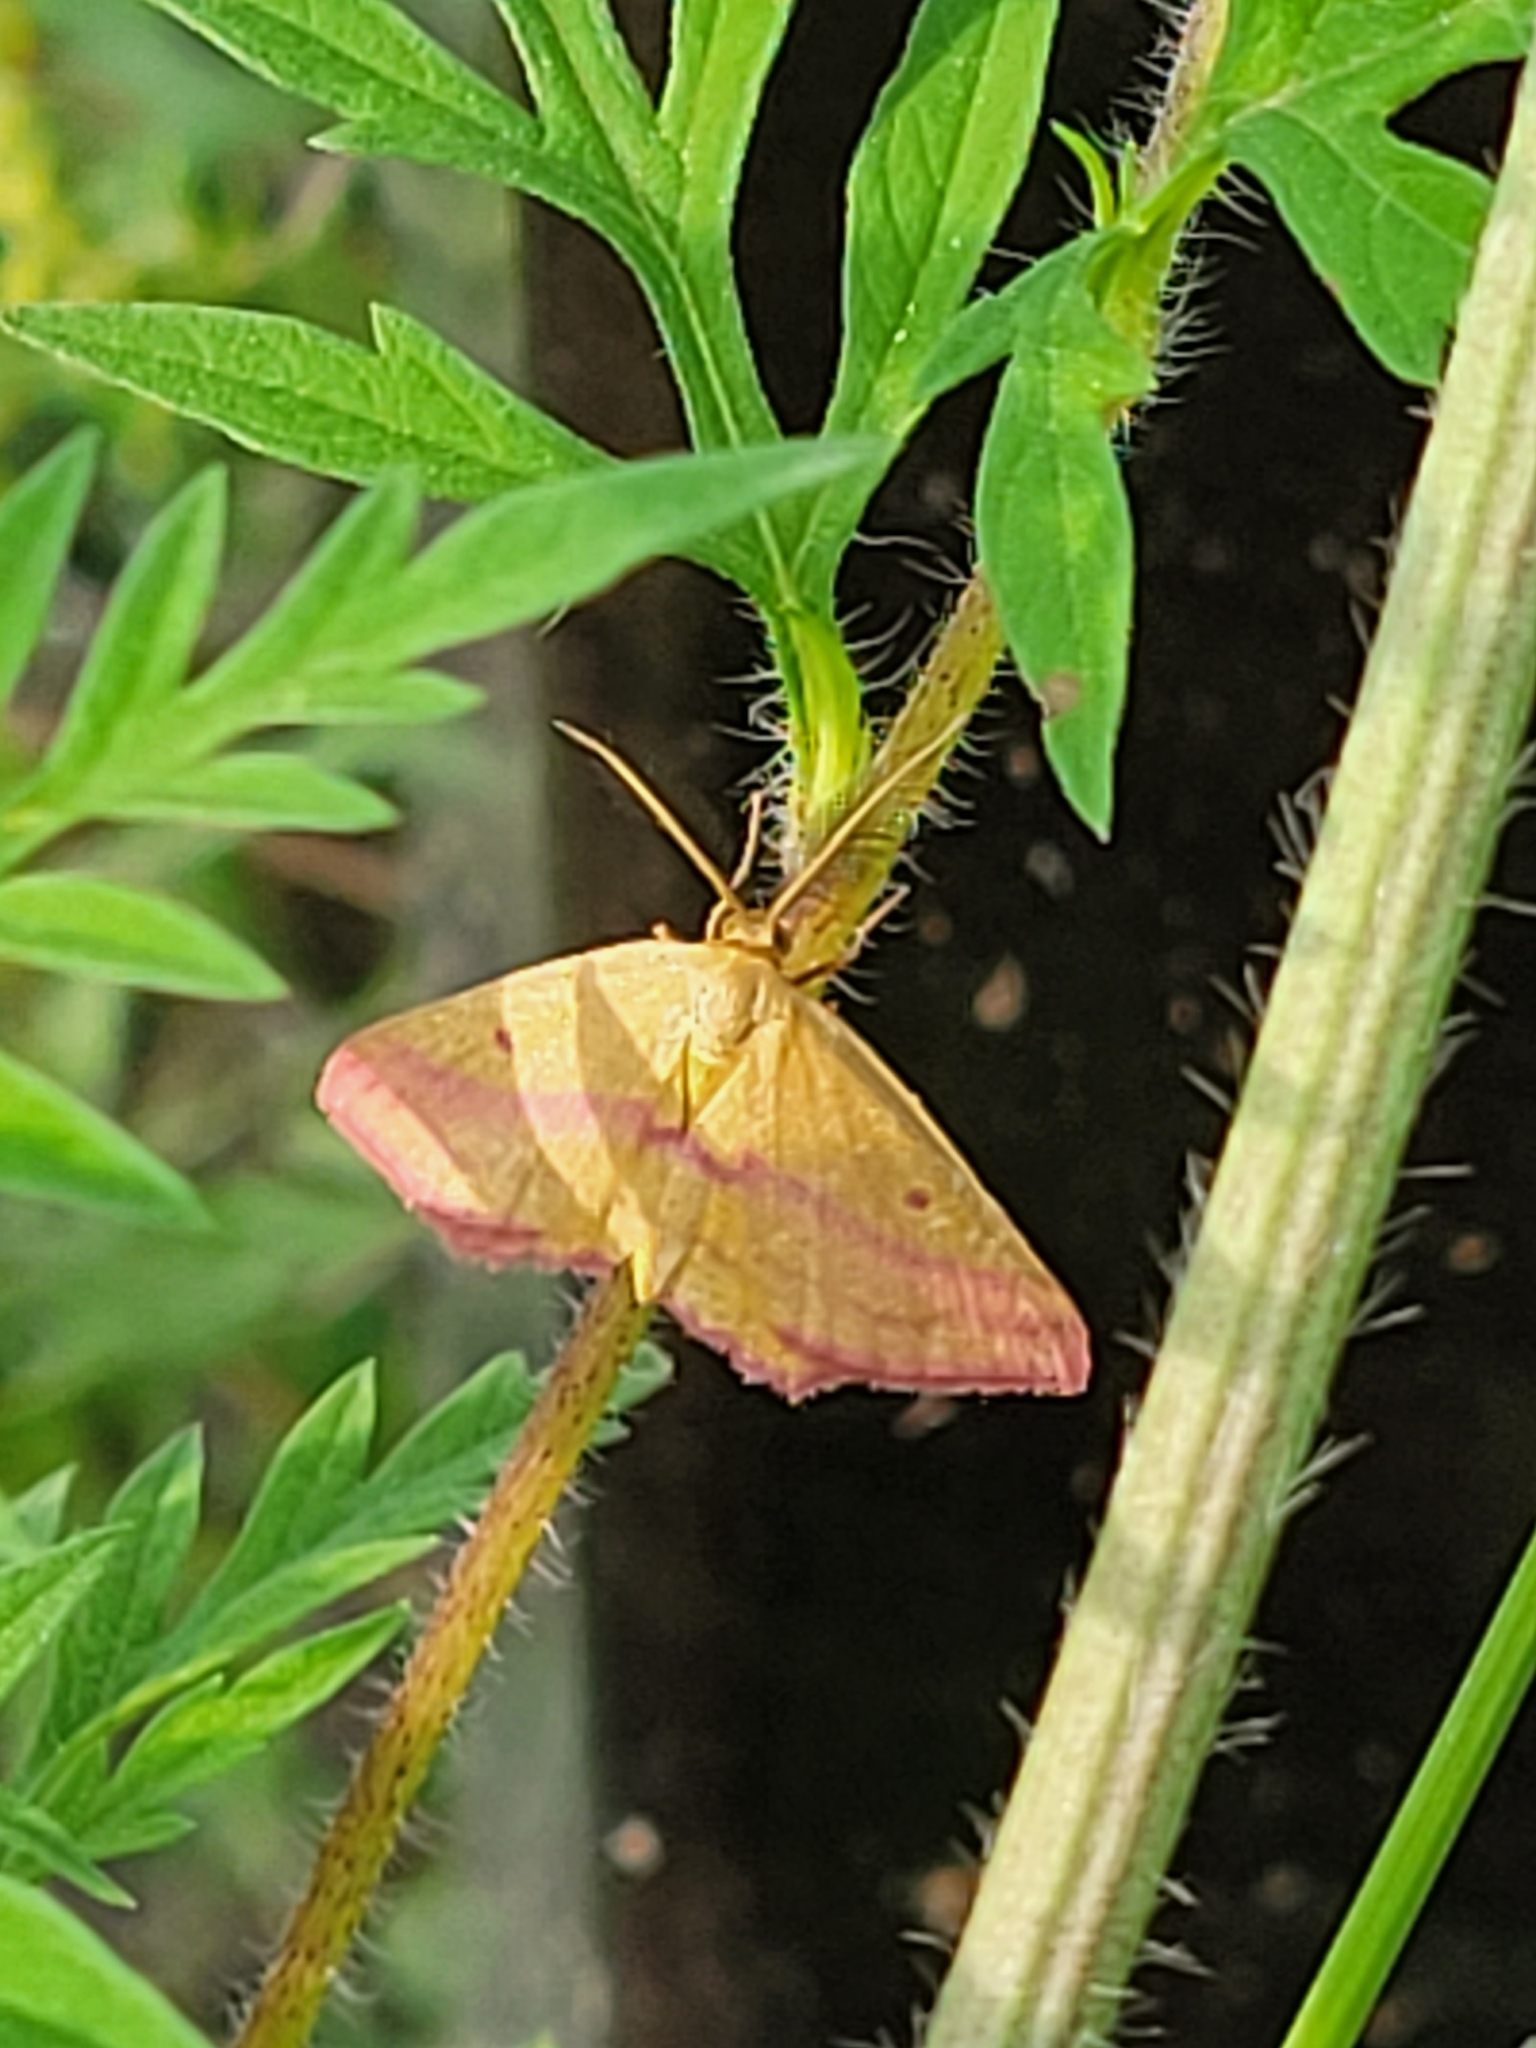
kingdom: Animalia
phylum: Arthropoda
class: Insecta
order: Lepidoptera
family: Geometridae
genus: Haematopis
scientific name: Haematopis grataria
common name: Chickweed geometer
